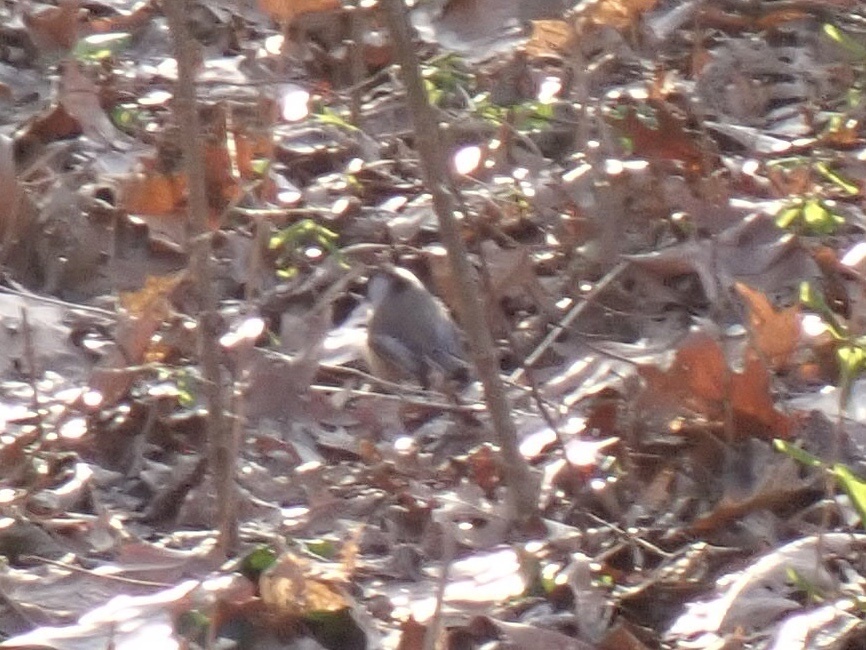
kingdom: Animalia
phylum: Chordata
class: Aves
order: Passeriformes
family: Paridae
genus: Poecile
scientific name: Poecile atricapillus
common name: Black-capped chickadee
